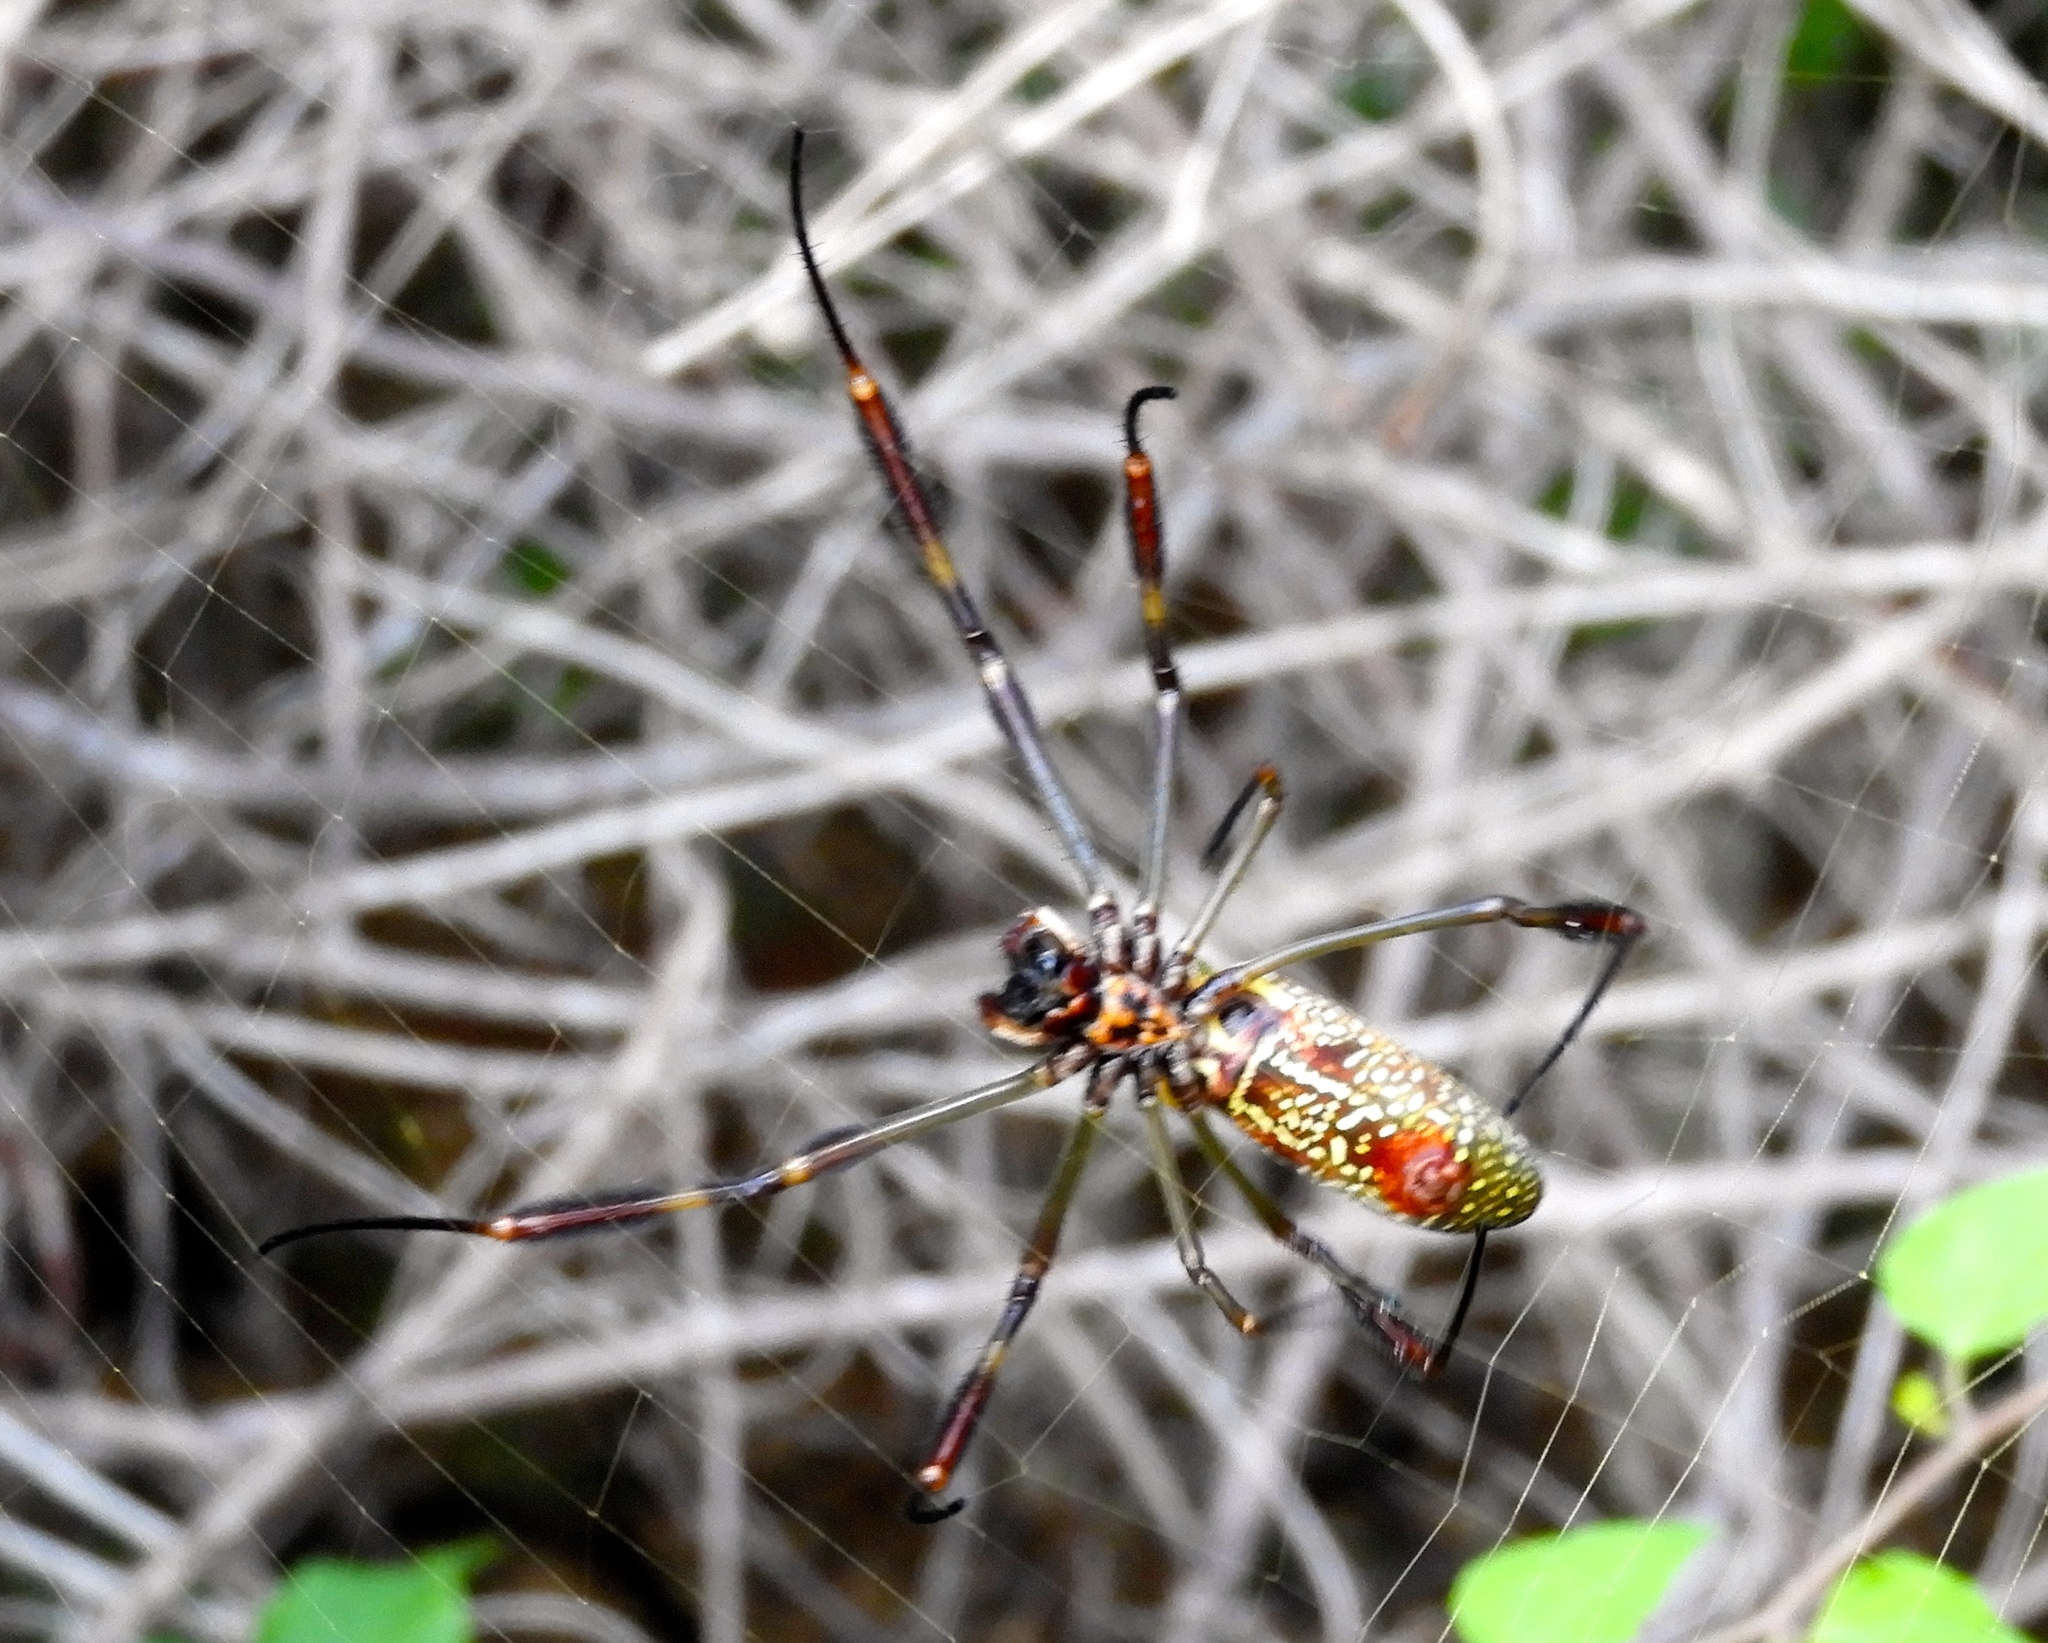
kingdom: Animalia
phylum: Arthropoda
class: Arachnida
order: Araneae
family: Araneidae
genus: Trichonephila
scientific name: Trichonephila clavipes
